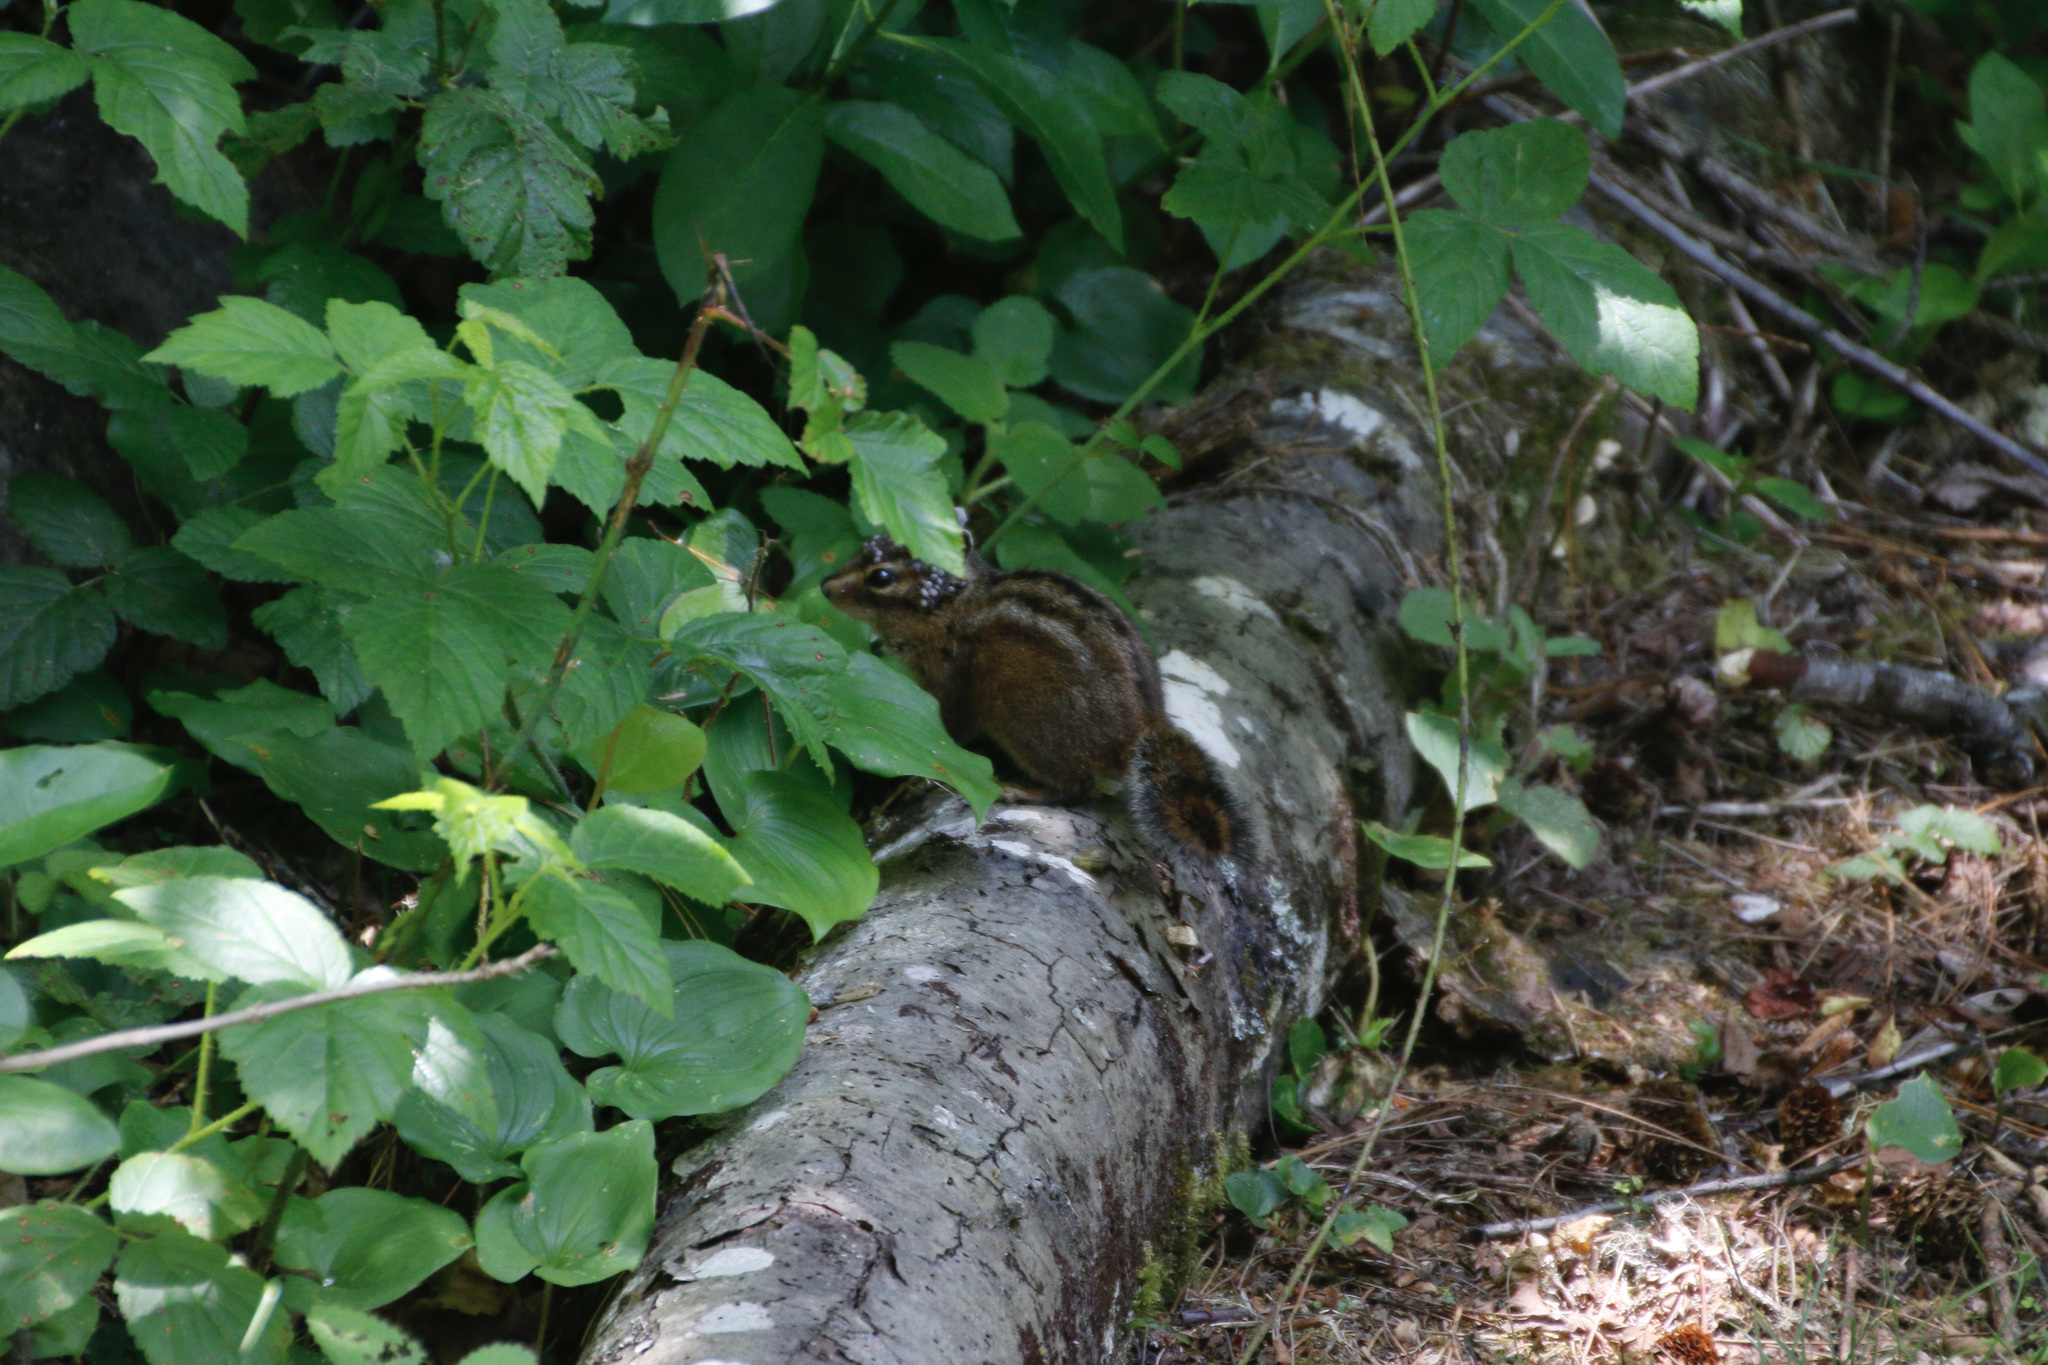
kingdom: Animalia
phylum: Chordata
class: Mammalia
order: Rodentia
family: Sciuridae
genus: Tamias
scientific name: Tamias senex
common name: Shadow chipmunk
